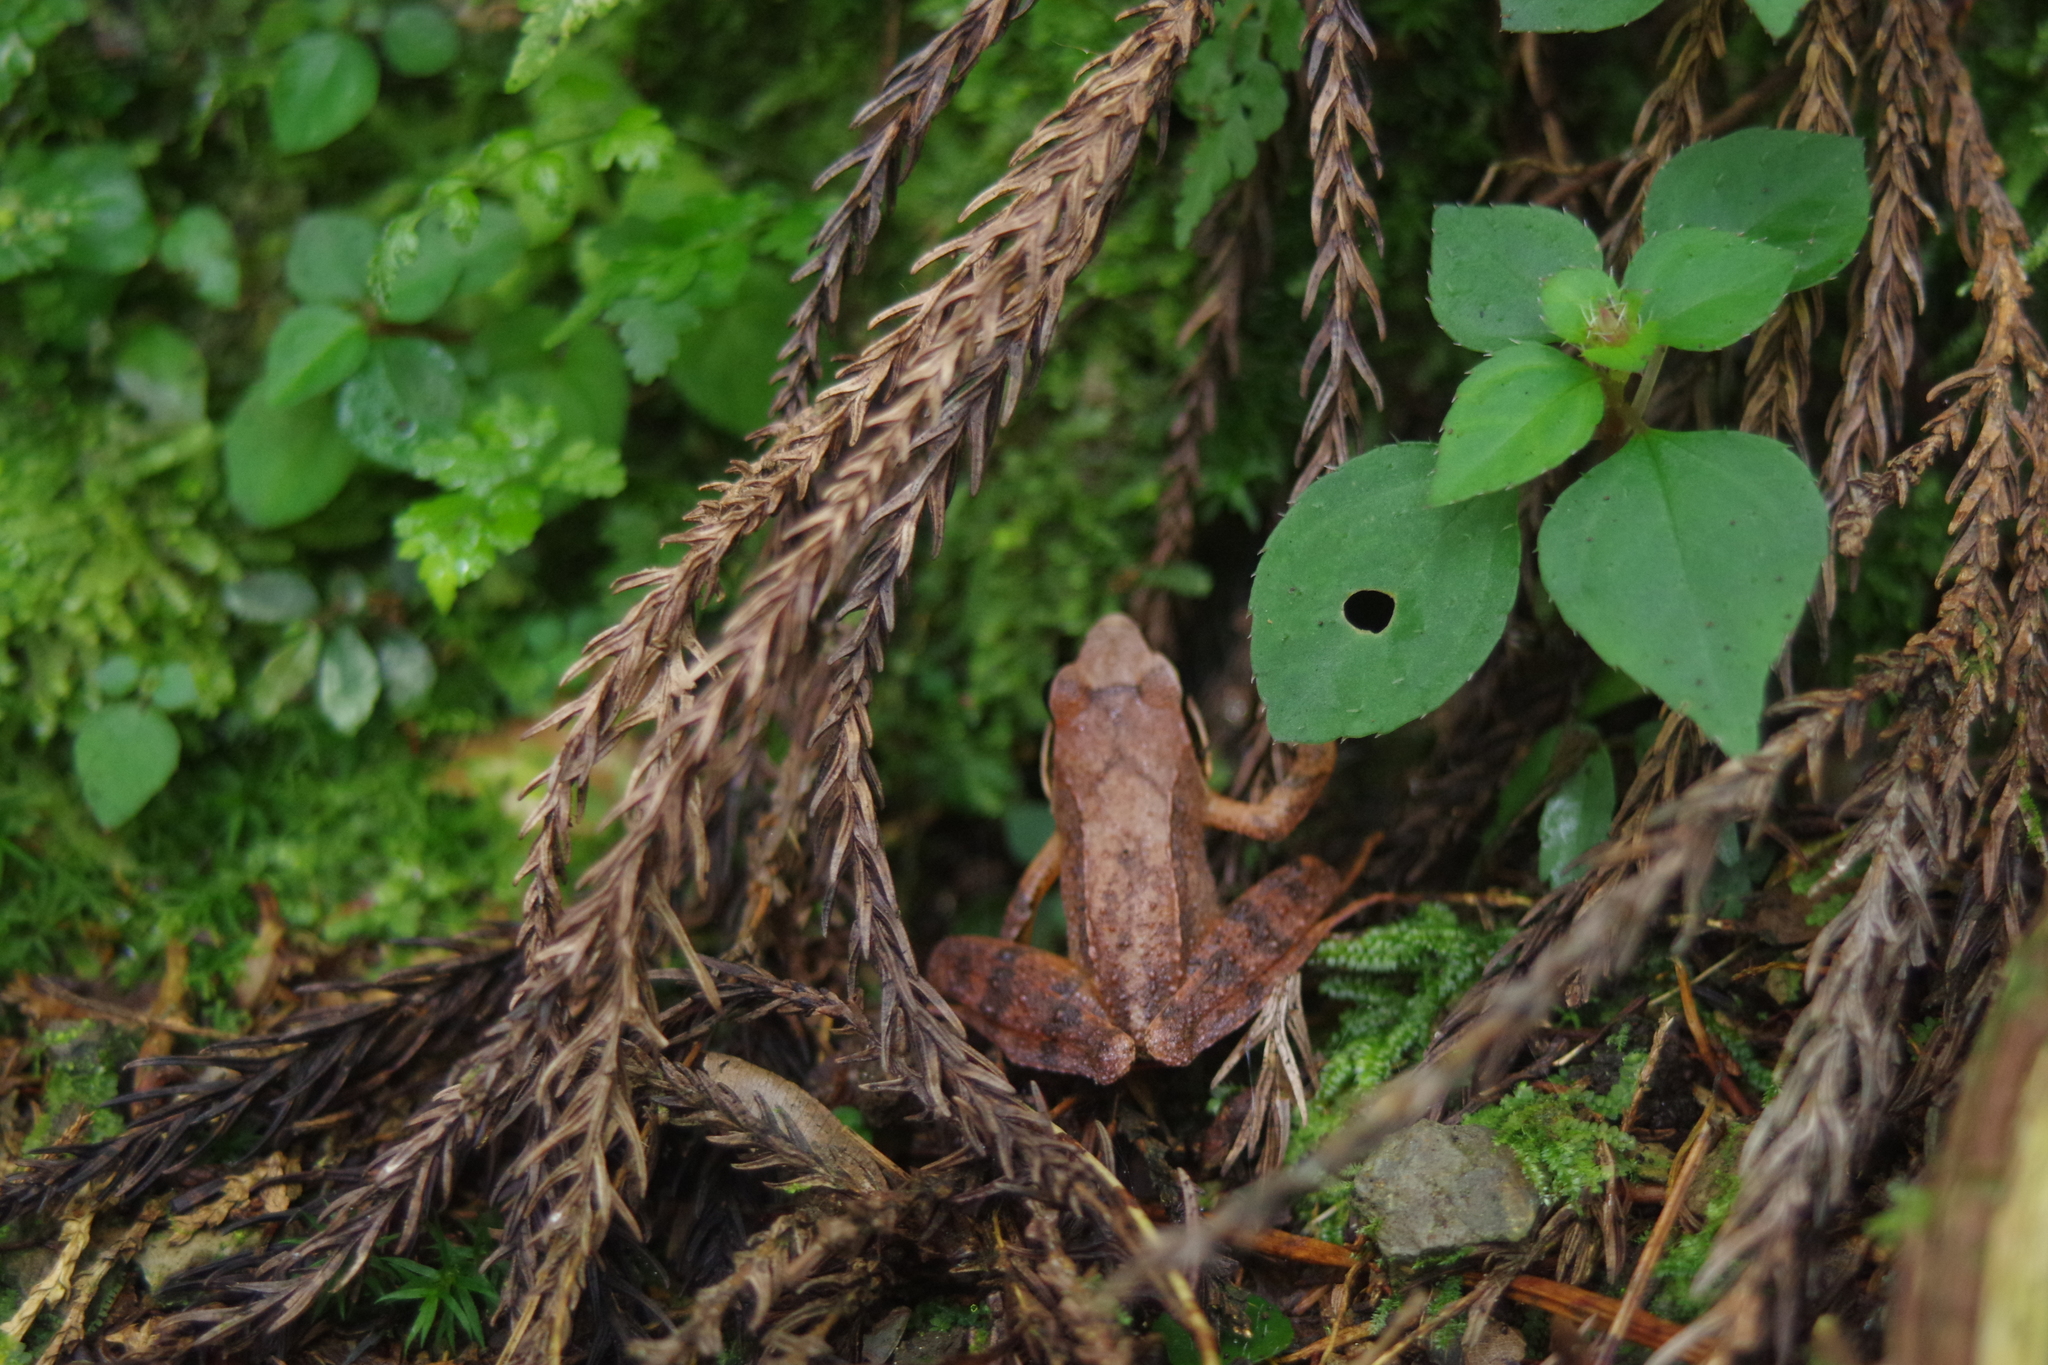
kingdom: Animalia
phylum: Chordata
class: Amphibia
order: Anura
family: Ranidae
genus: Rana
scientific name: Rana sauteri
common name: Kanshirei village frog
